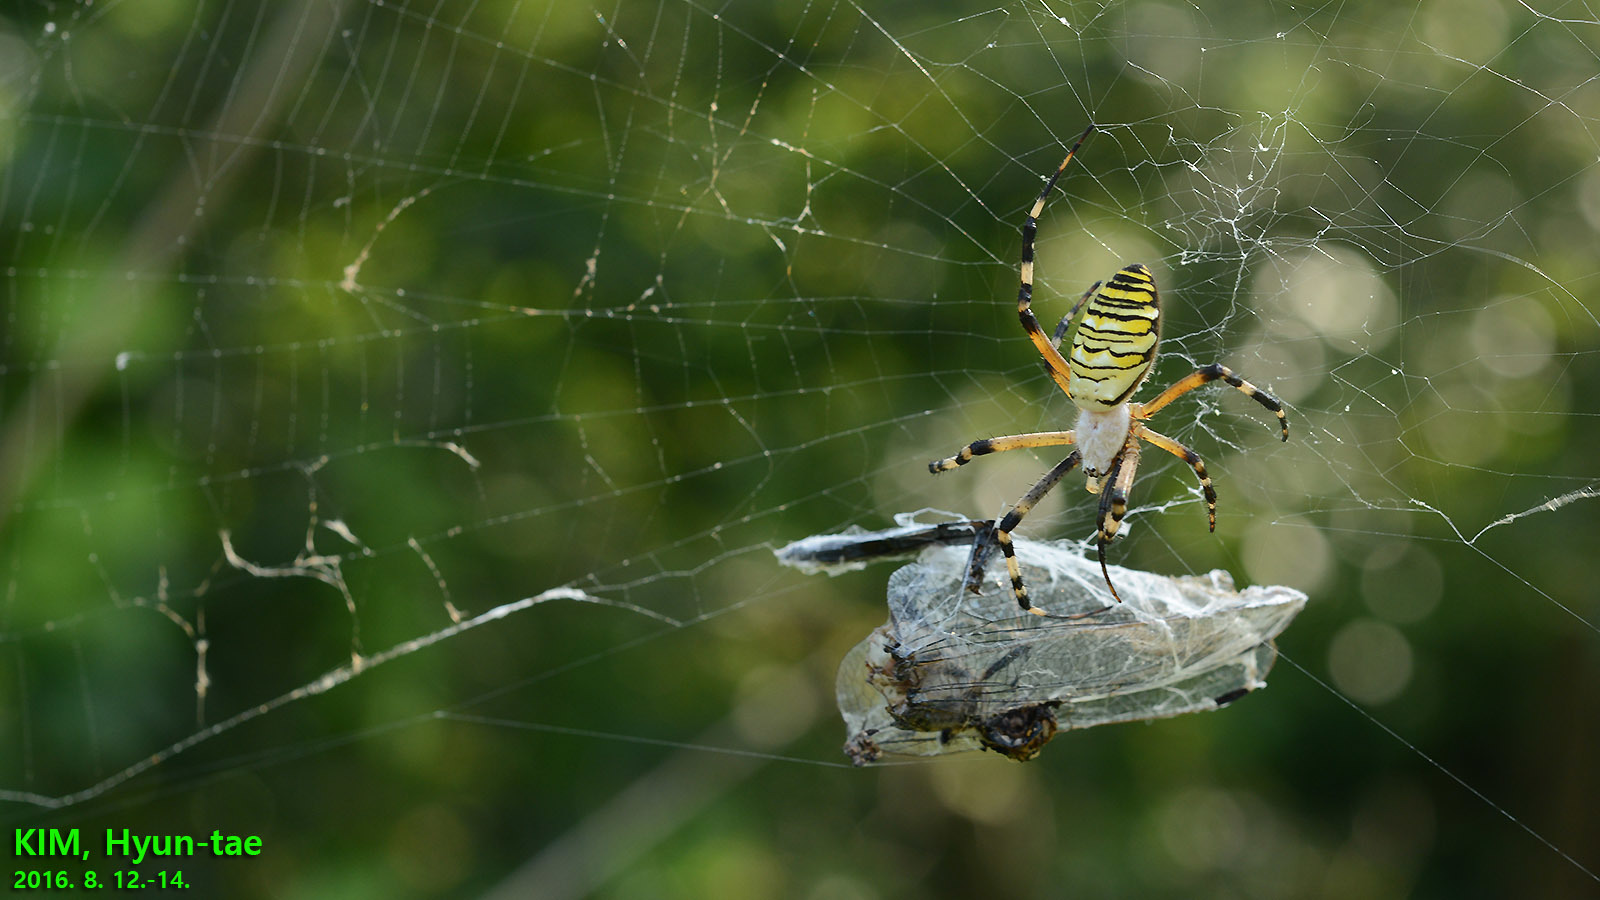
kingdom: Animalia
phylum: Arthropoda
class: Arachnida
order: Araneae
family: Araneidae
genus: Argiope
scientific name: Argiope bruennichi
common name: Wasp spider
